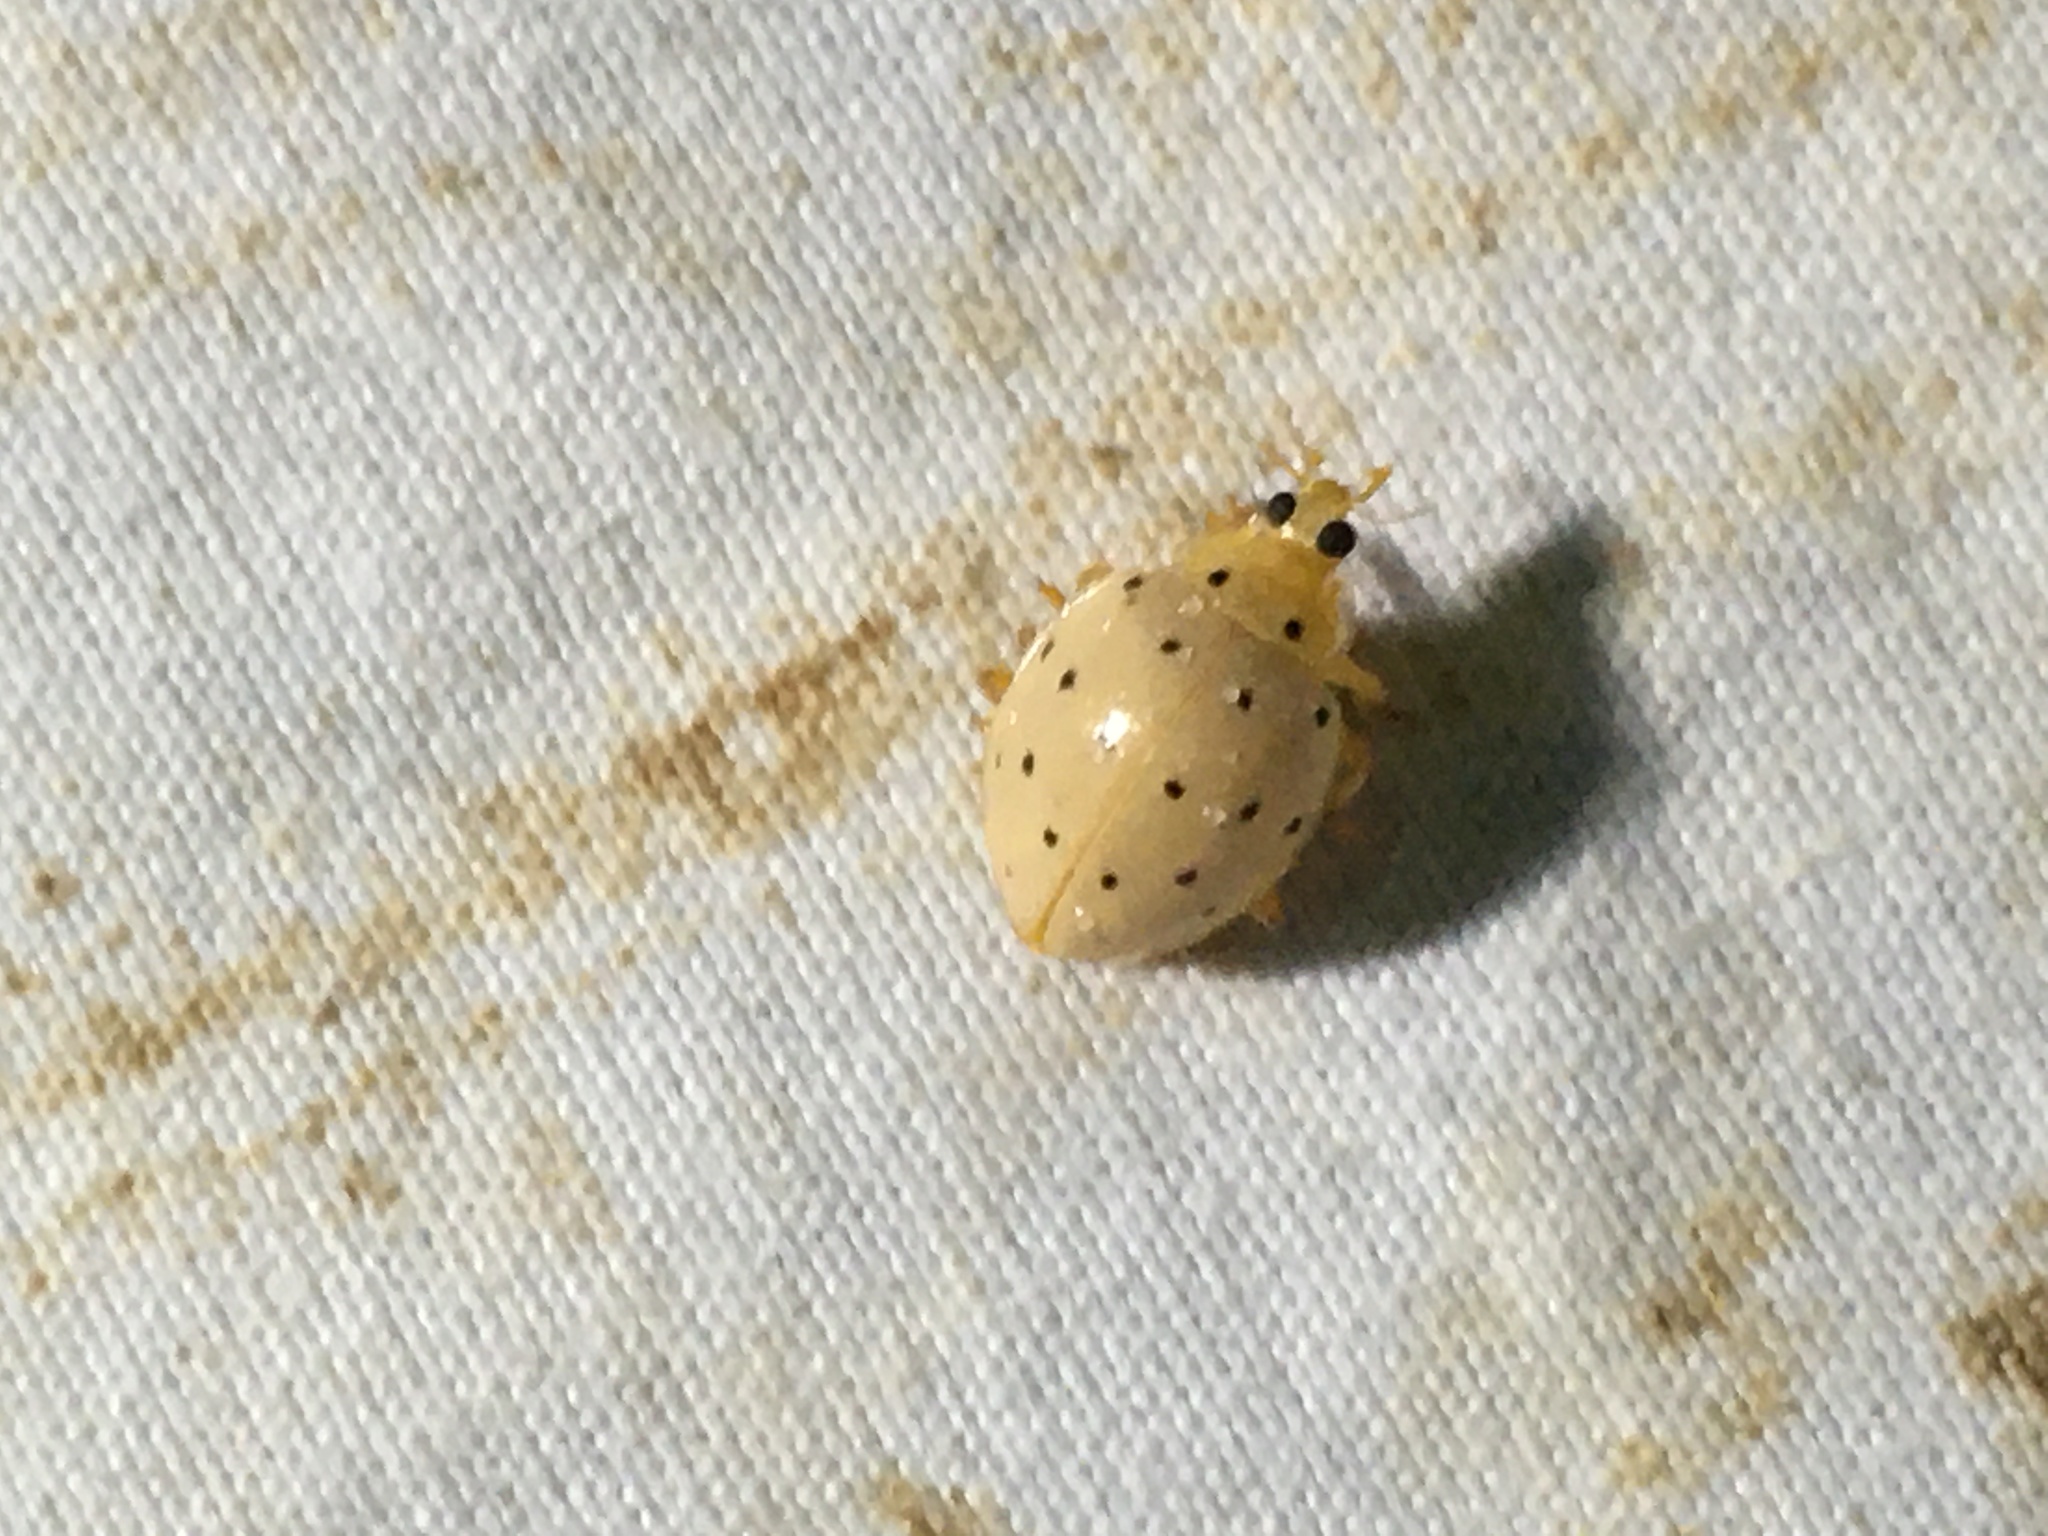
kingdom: Animalia
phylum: Arthropoda
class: Insecta
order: Coleoptera
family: Coccinellidae
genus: Neohalyzia
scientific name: Neohalyzia
